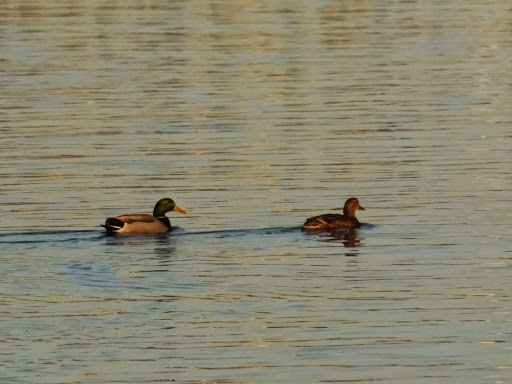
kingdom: Animalia
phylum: Chordata
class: Aves
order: Anseriformes
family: Anatidae
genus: Anas
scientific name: Anas platyrhynchos
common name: Mallard
